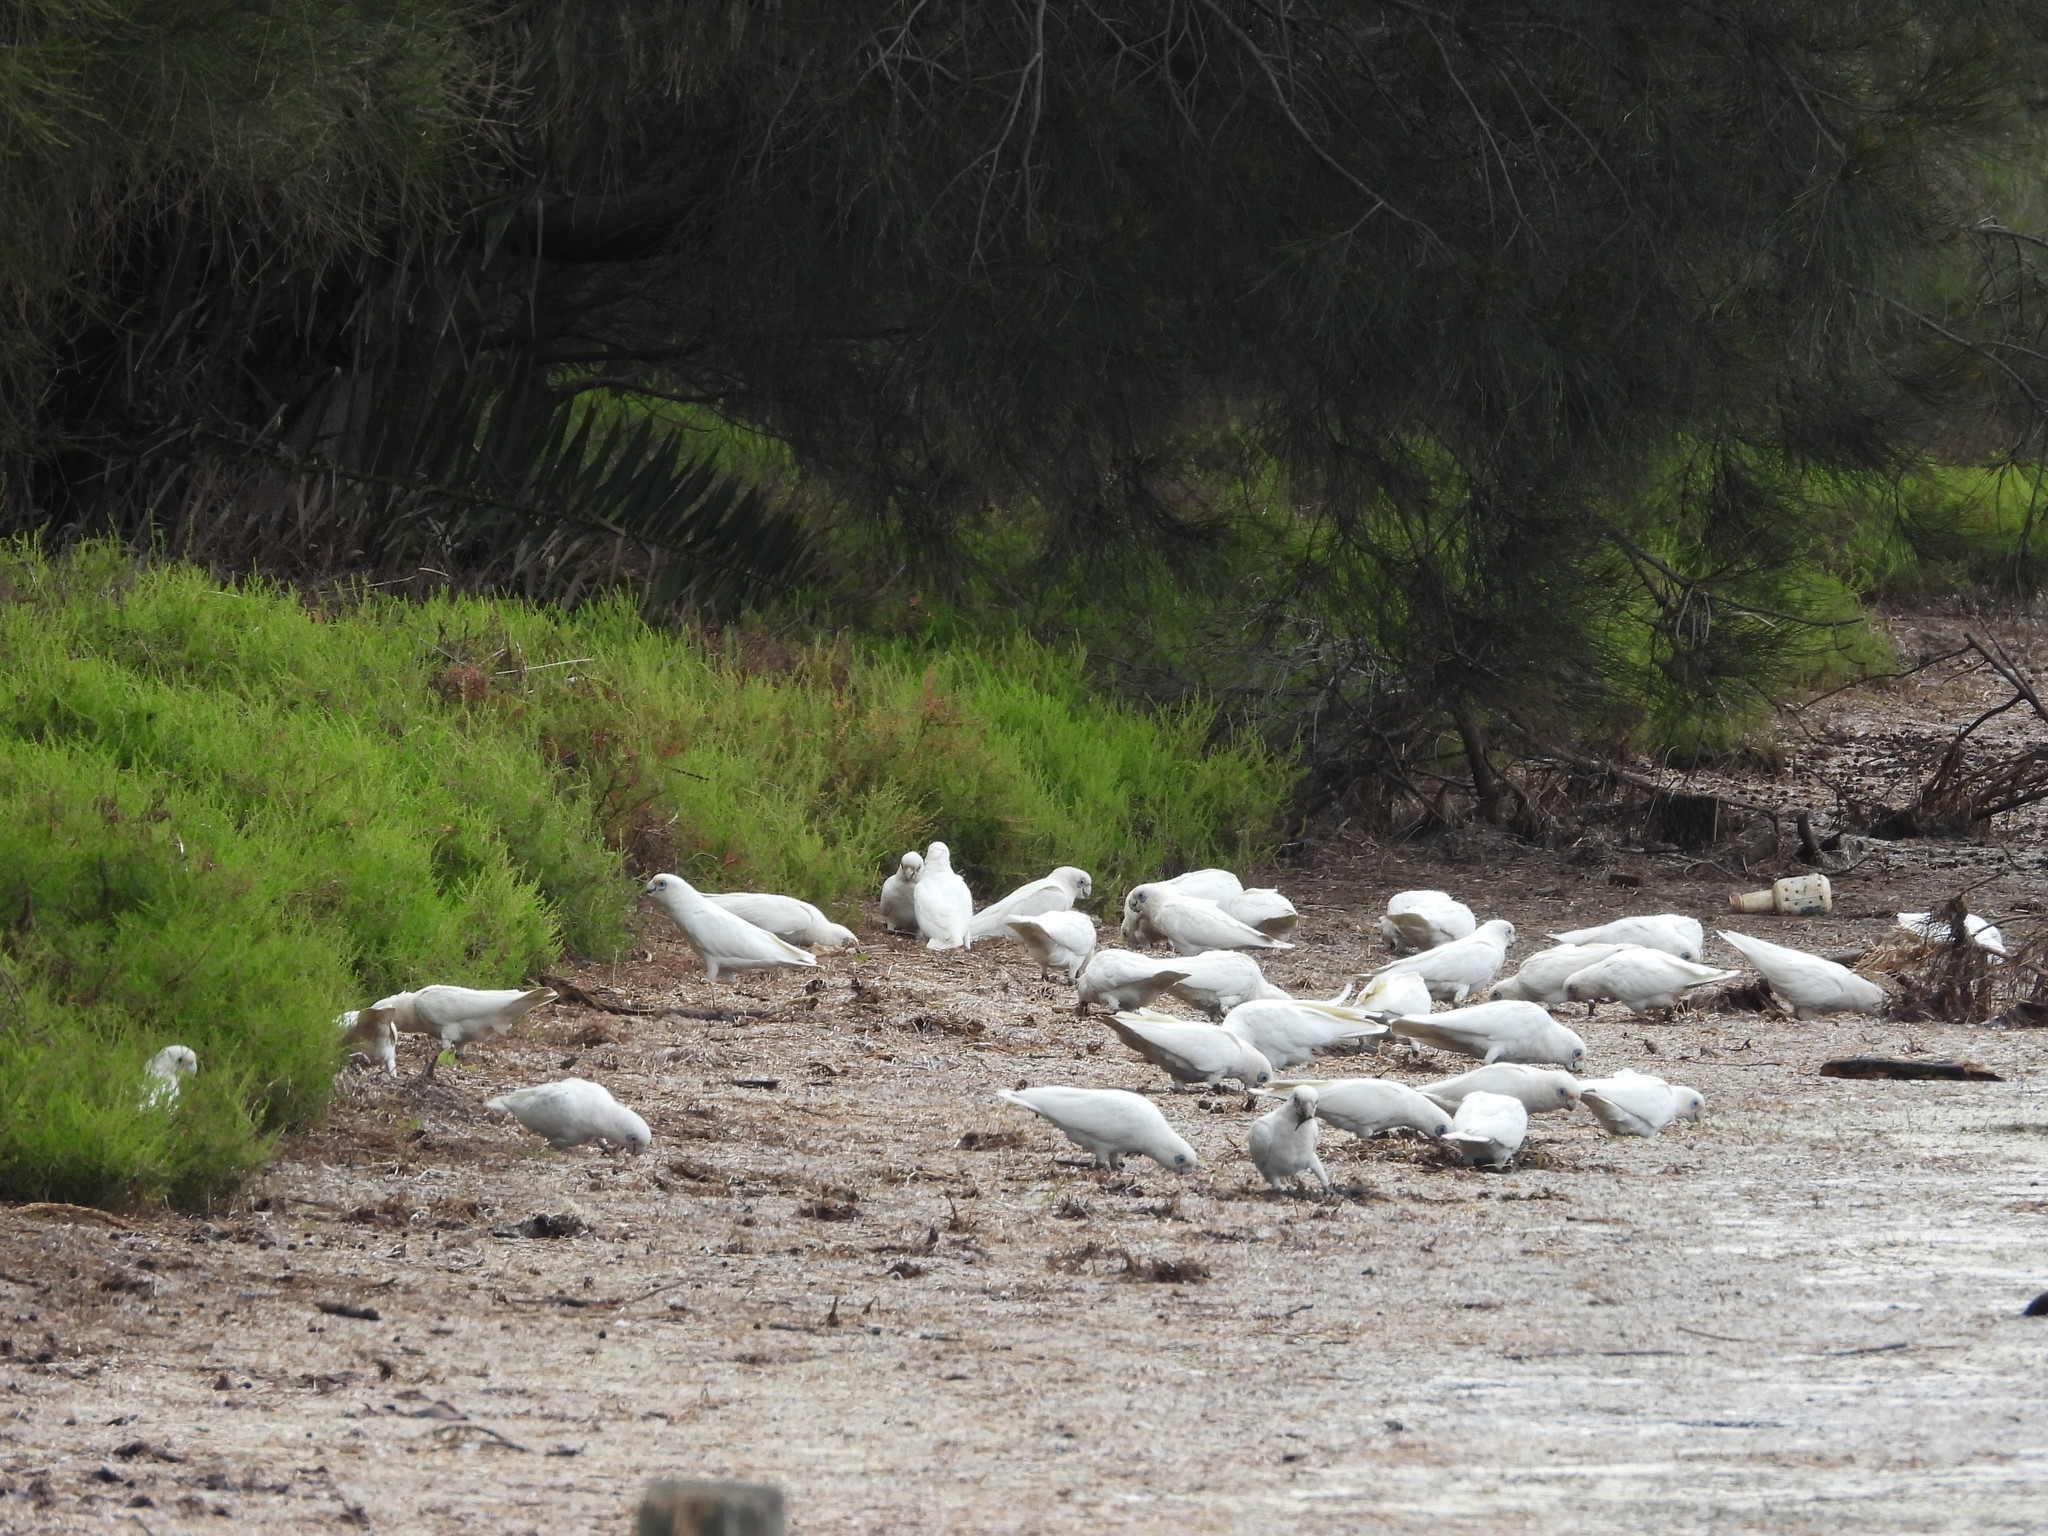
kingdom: Animalia
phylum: Chordata
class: Aves
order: Psittaciformes
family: Psittacidae
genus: Cacatua
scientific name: Cacatua sanguinea
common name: Little corella
